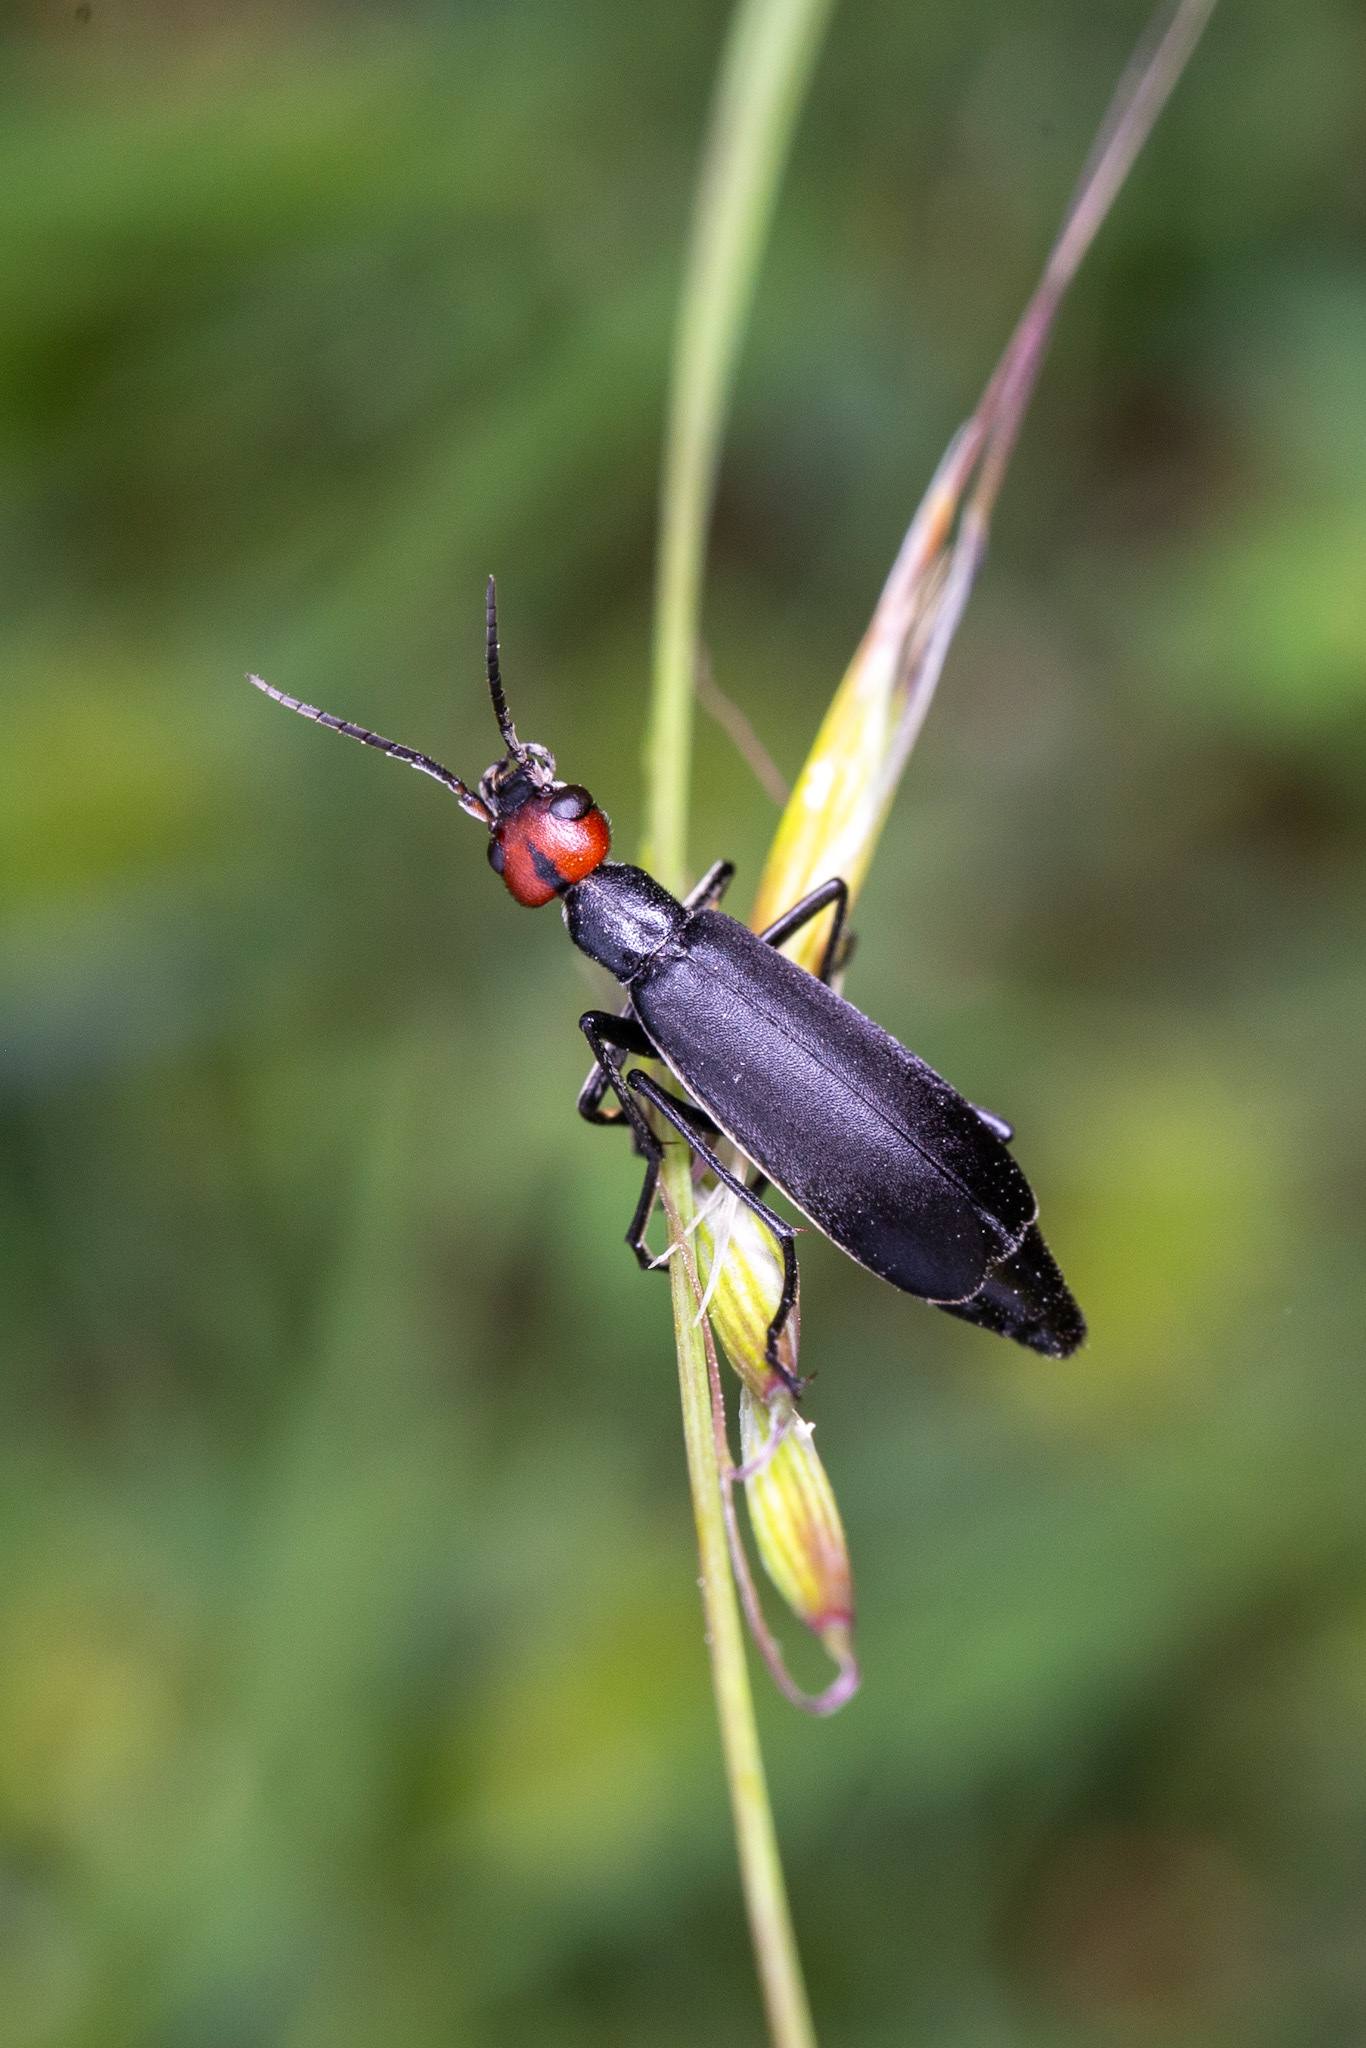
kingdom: Animalia
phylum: Arthropoda
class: Insecta
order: Coleoptera
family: Meloidae
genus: Epicauta
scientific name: Epicauta rufidorsum
